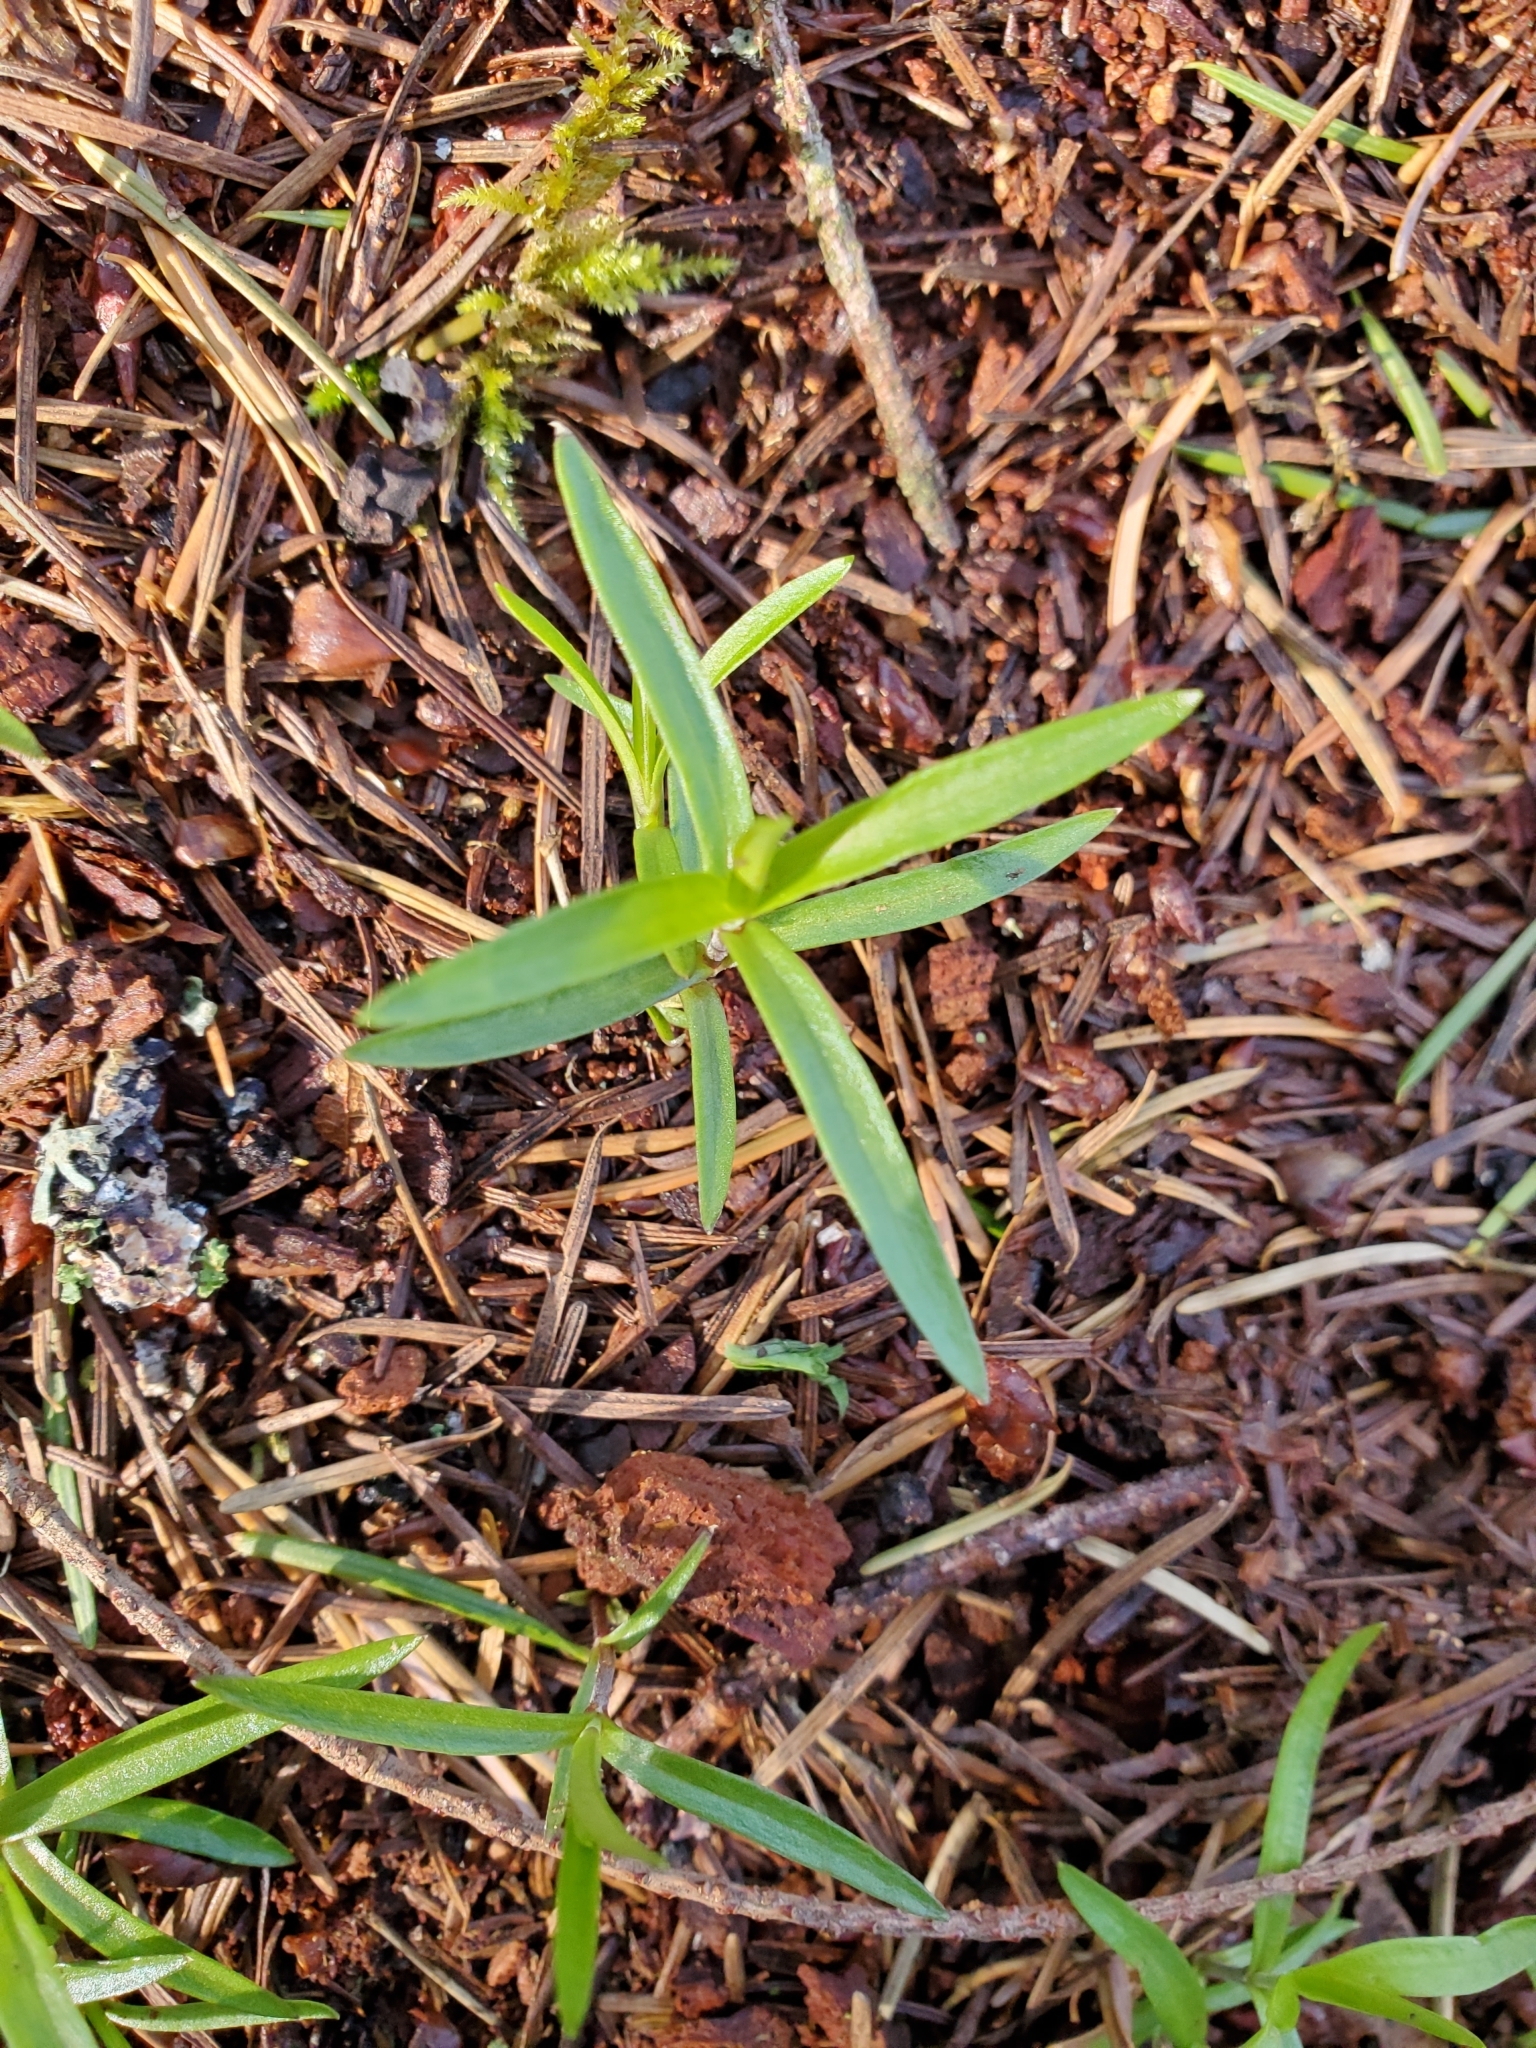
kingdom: Plantae
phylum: Tracheophyta
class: Magnoliopsida
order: Caryophyllales
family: Caryophyllaceae
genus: Moehringia
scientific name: Moehringia macrophylla
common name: Big-leaf sandwort
